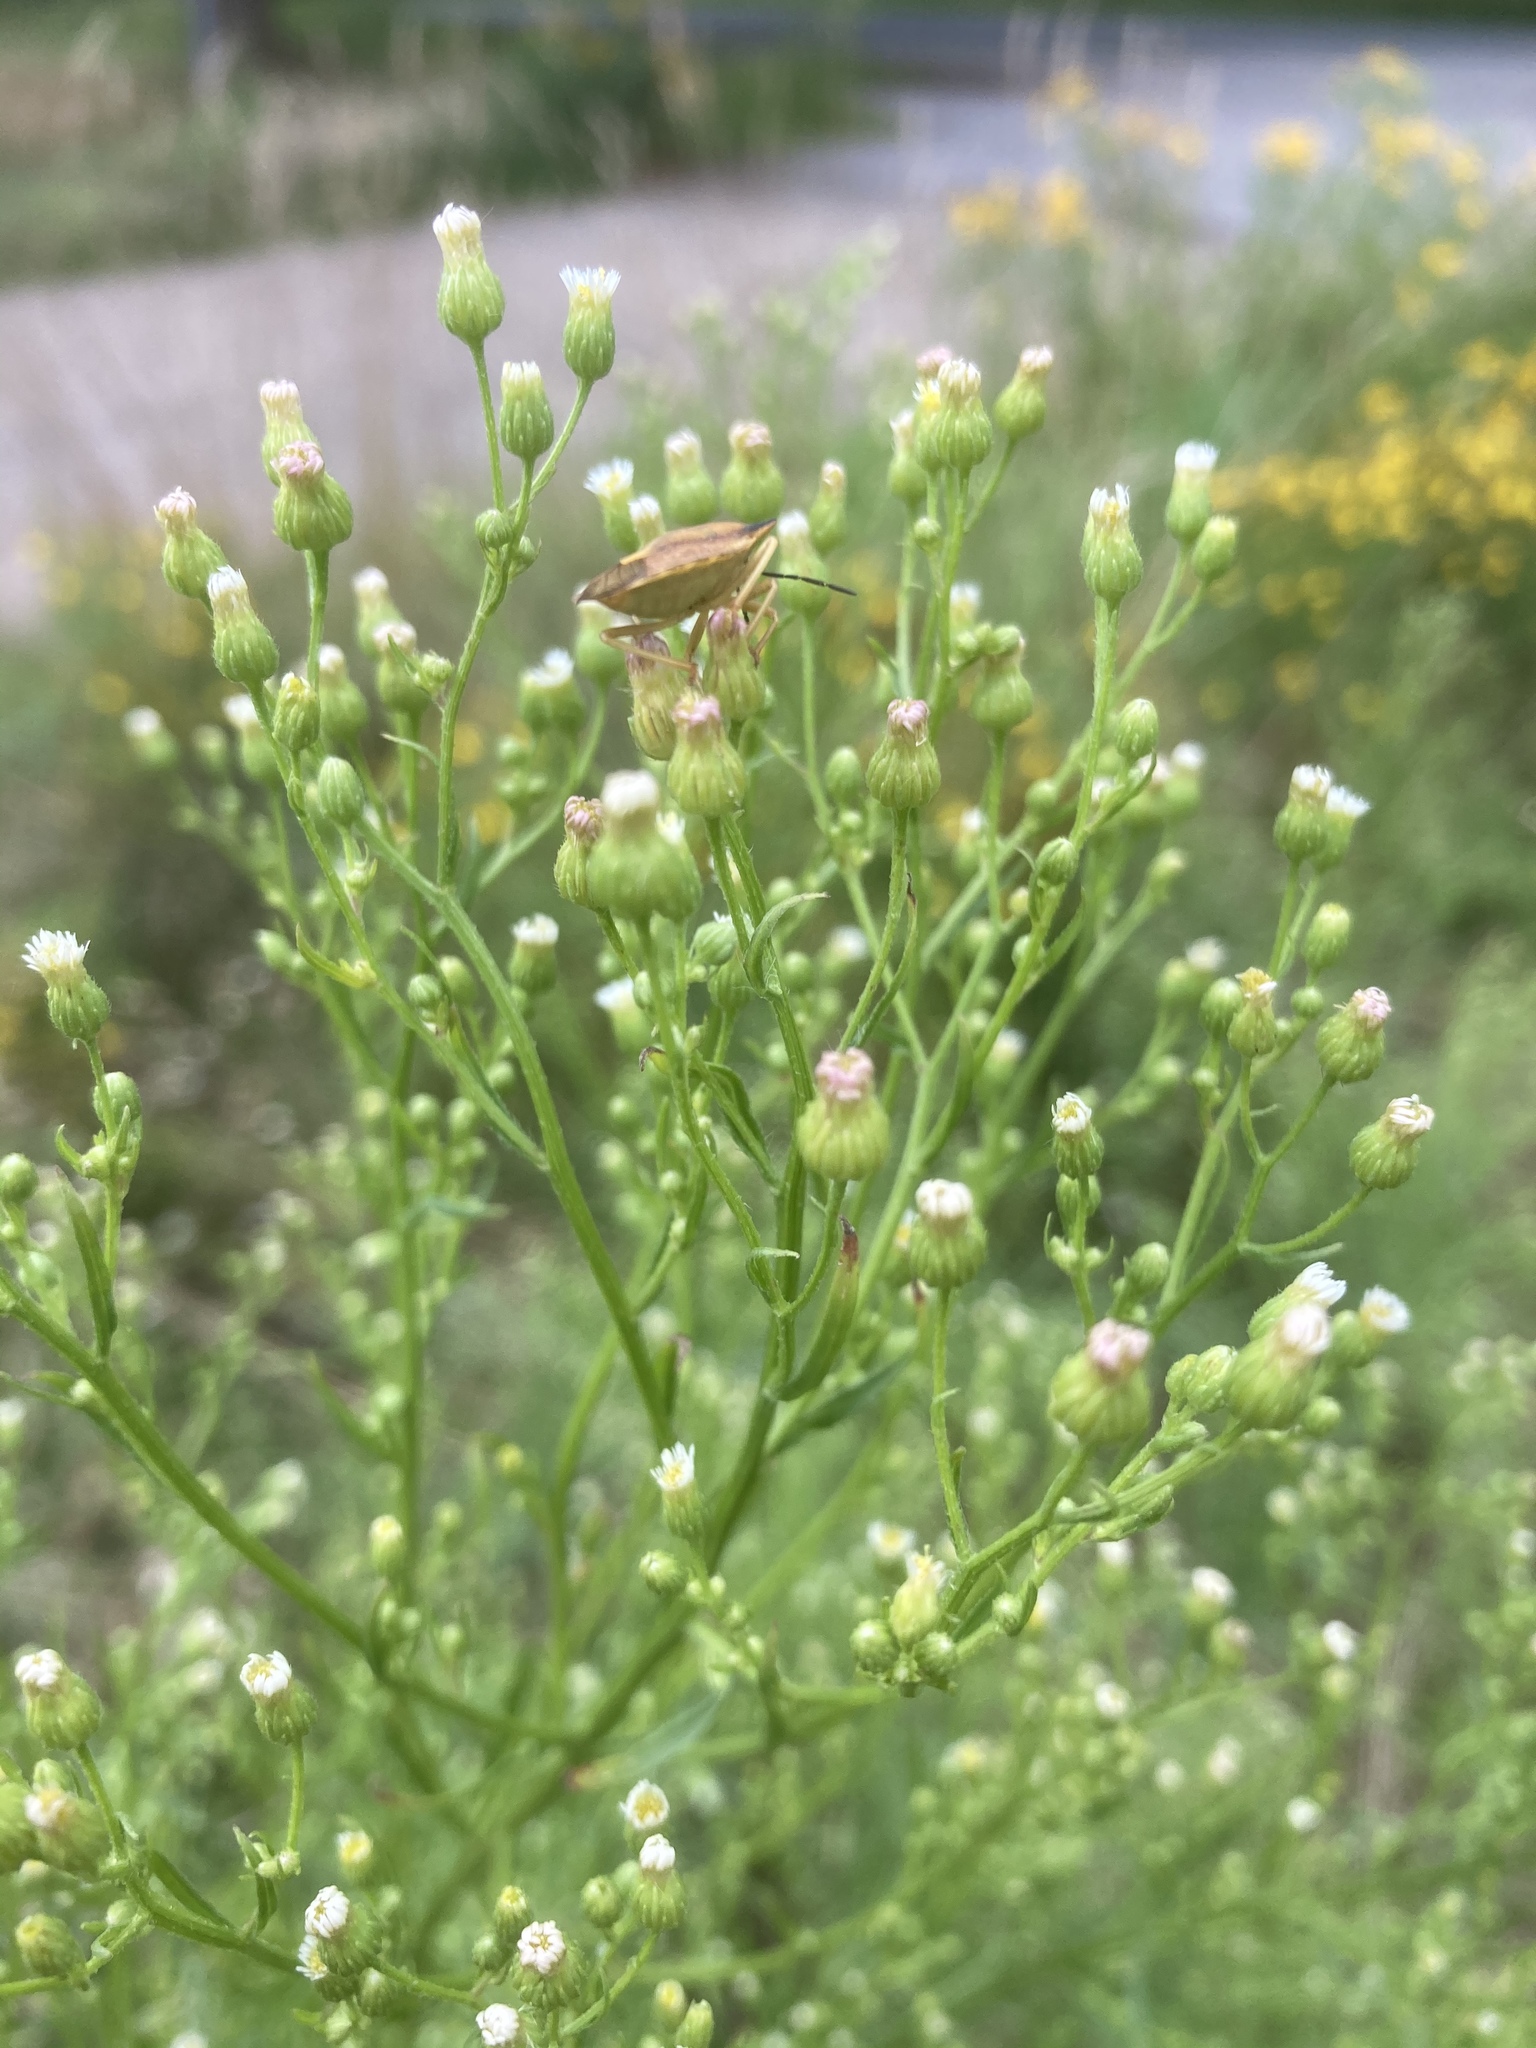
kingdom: Animalia
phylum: Arthropoda
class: Insecta
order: Hemiptera
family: Pentatomidae
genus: Carpocoris
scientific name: Carpocoris fuscispinus
